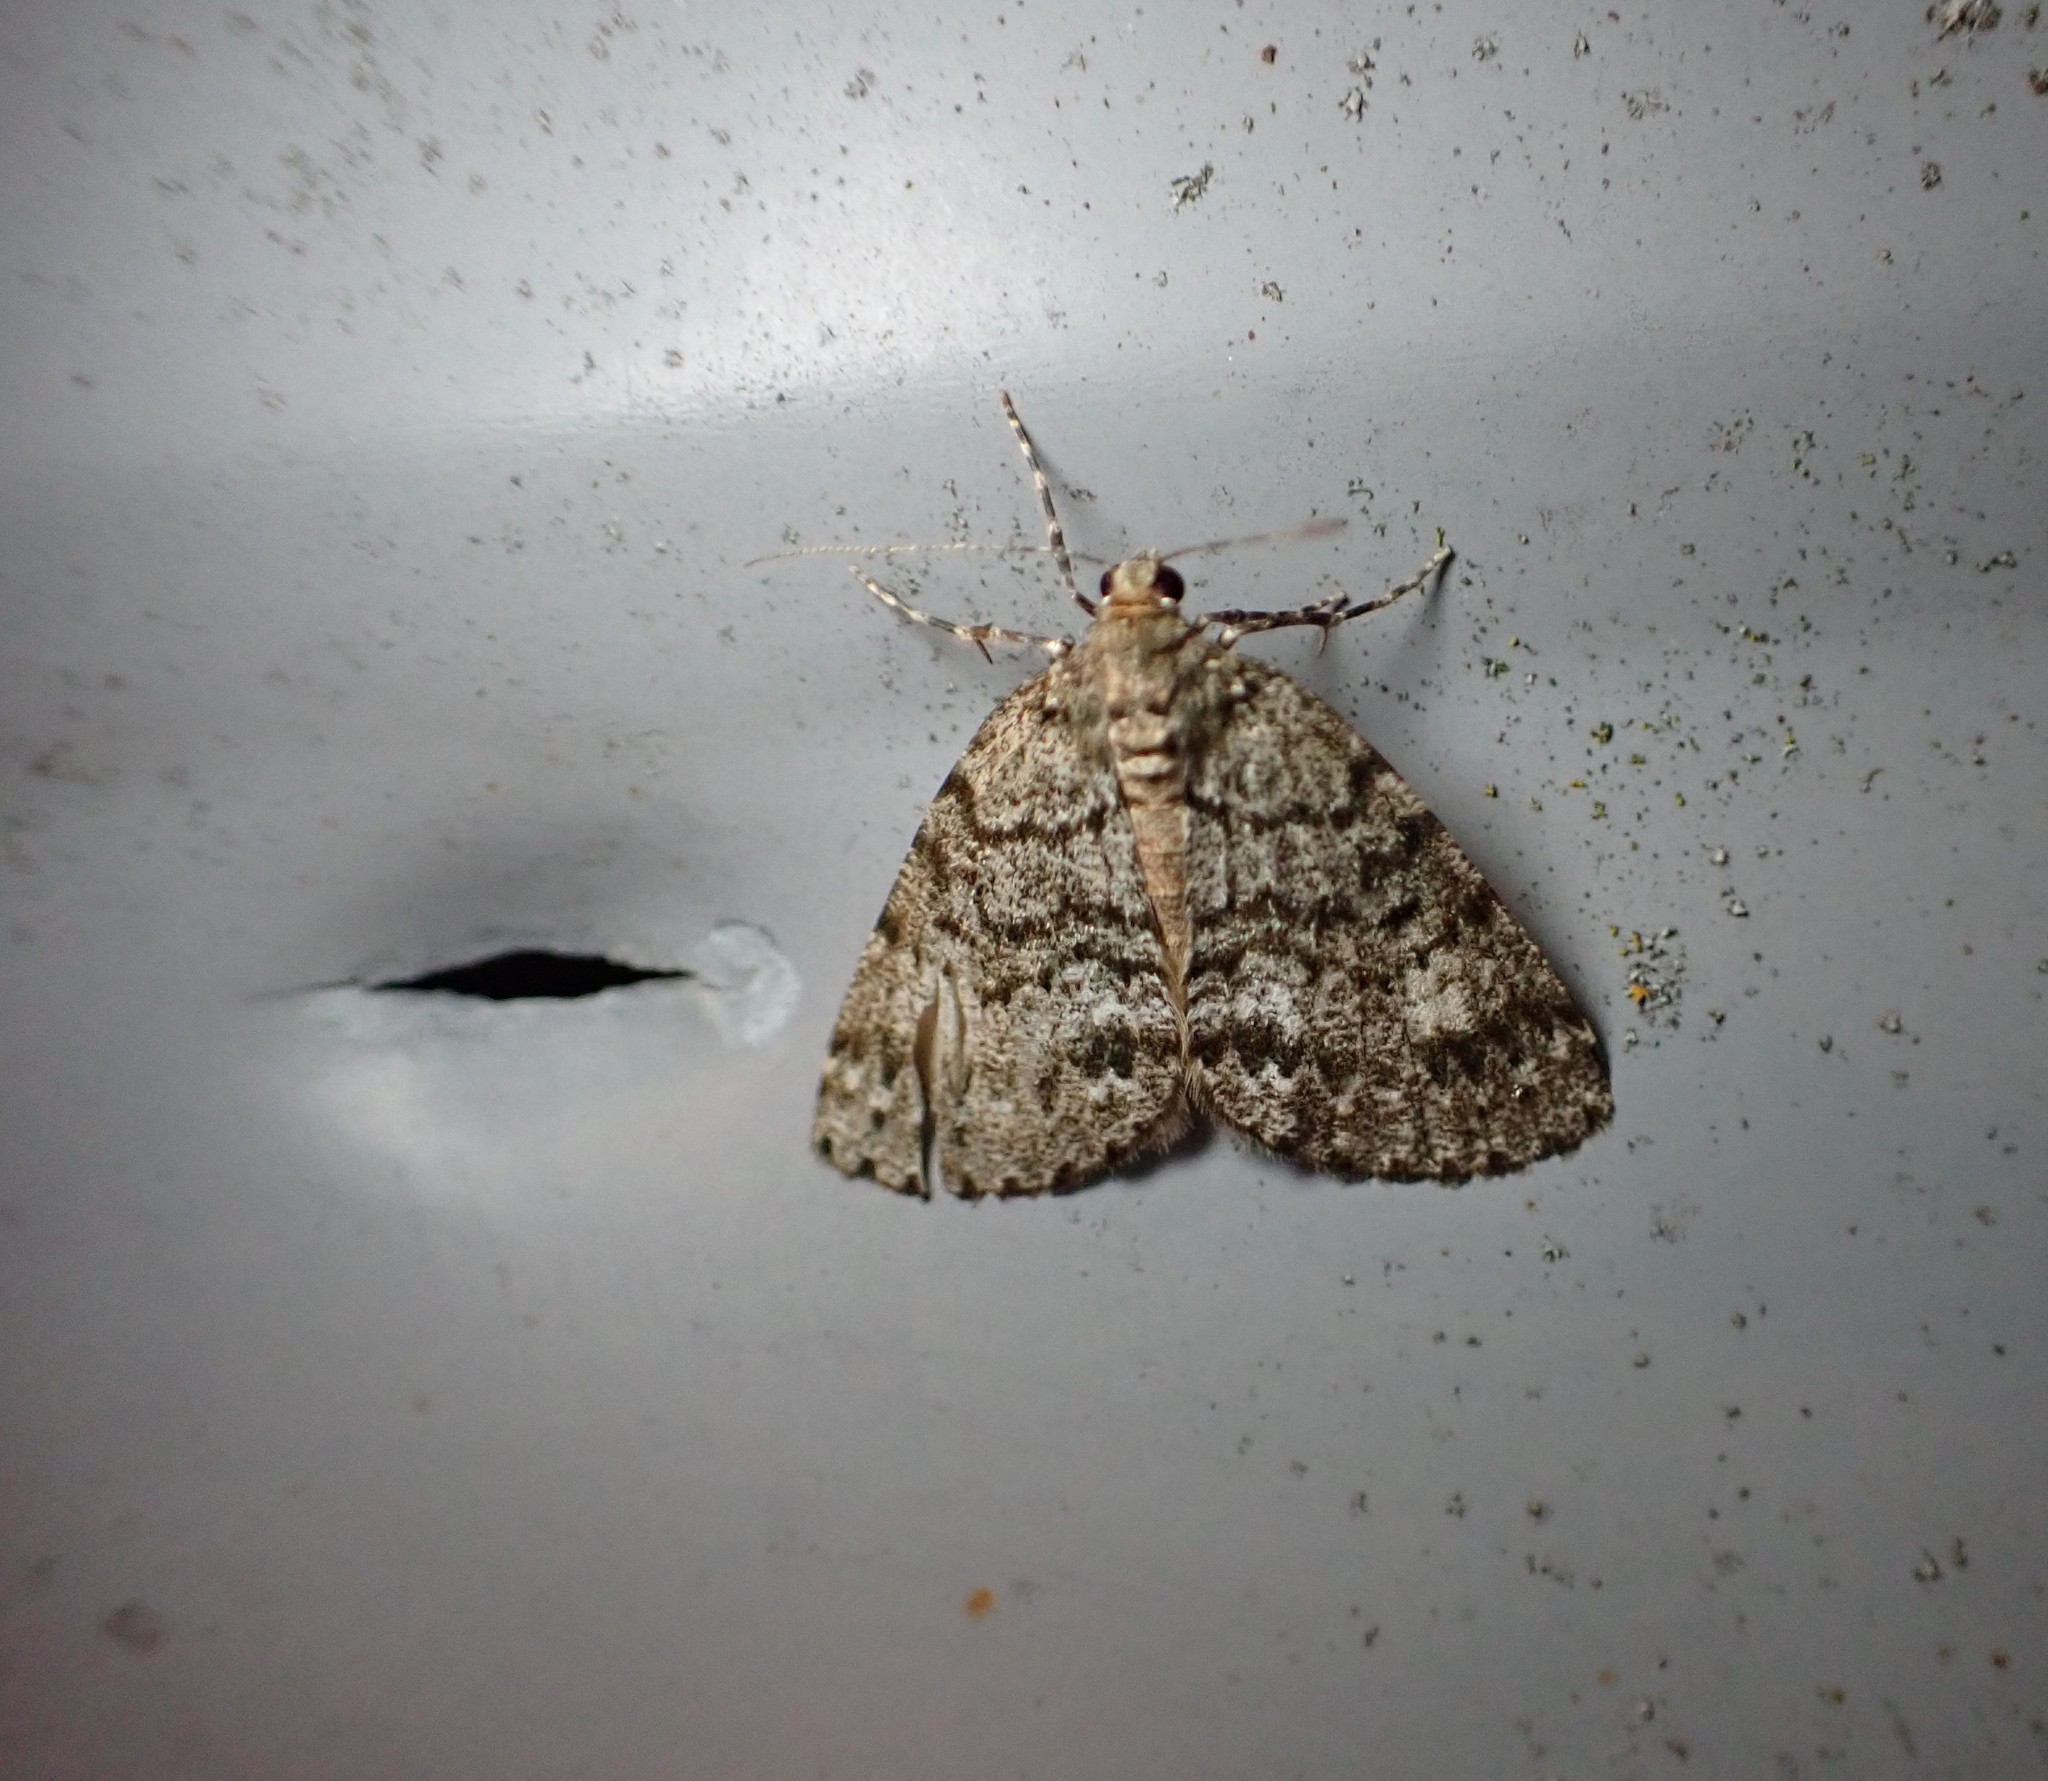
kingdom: Animalia
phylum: Arthropoda
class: Insecta
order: Lepidoptera
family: Geometridae
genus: Pseudocoremia
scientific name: Pseudocoremia indistincta
